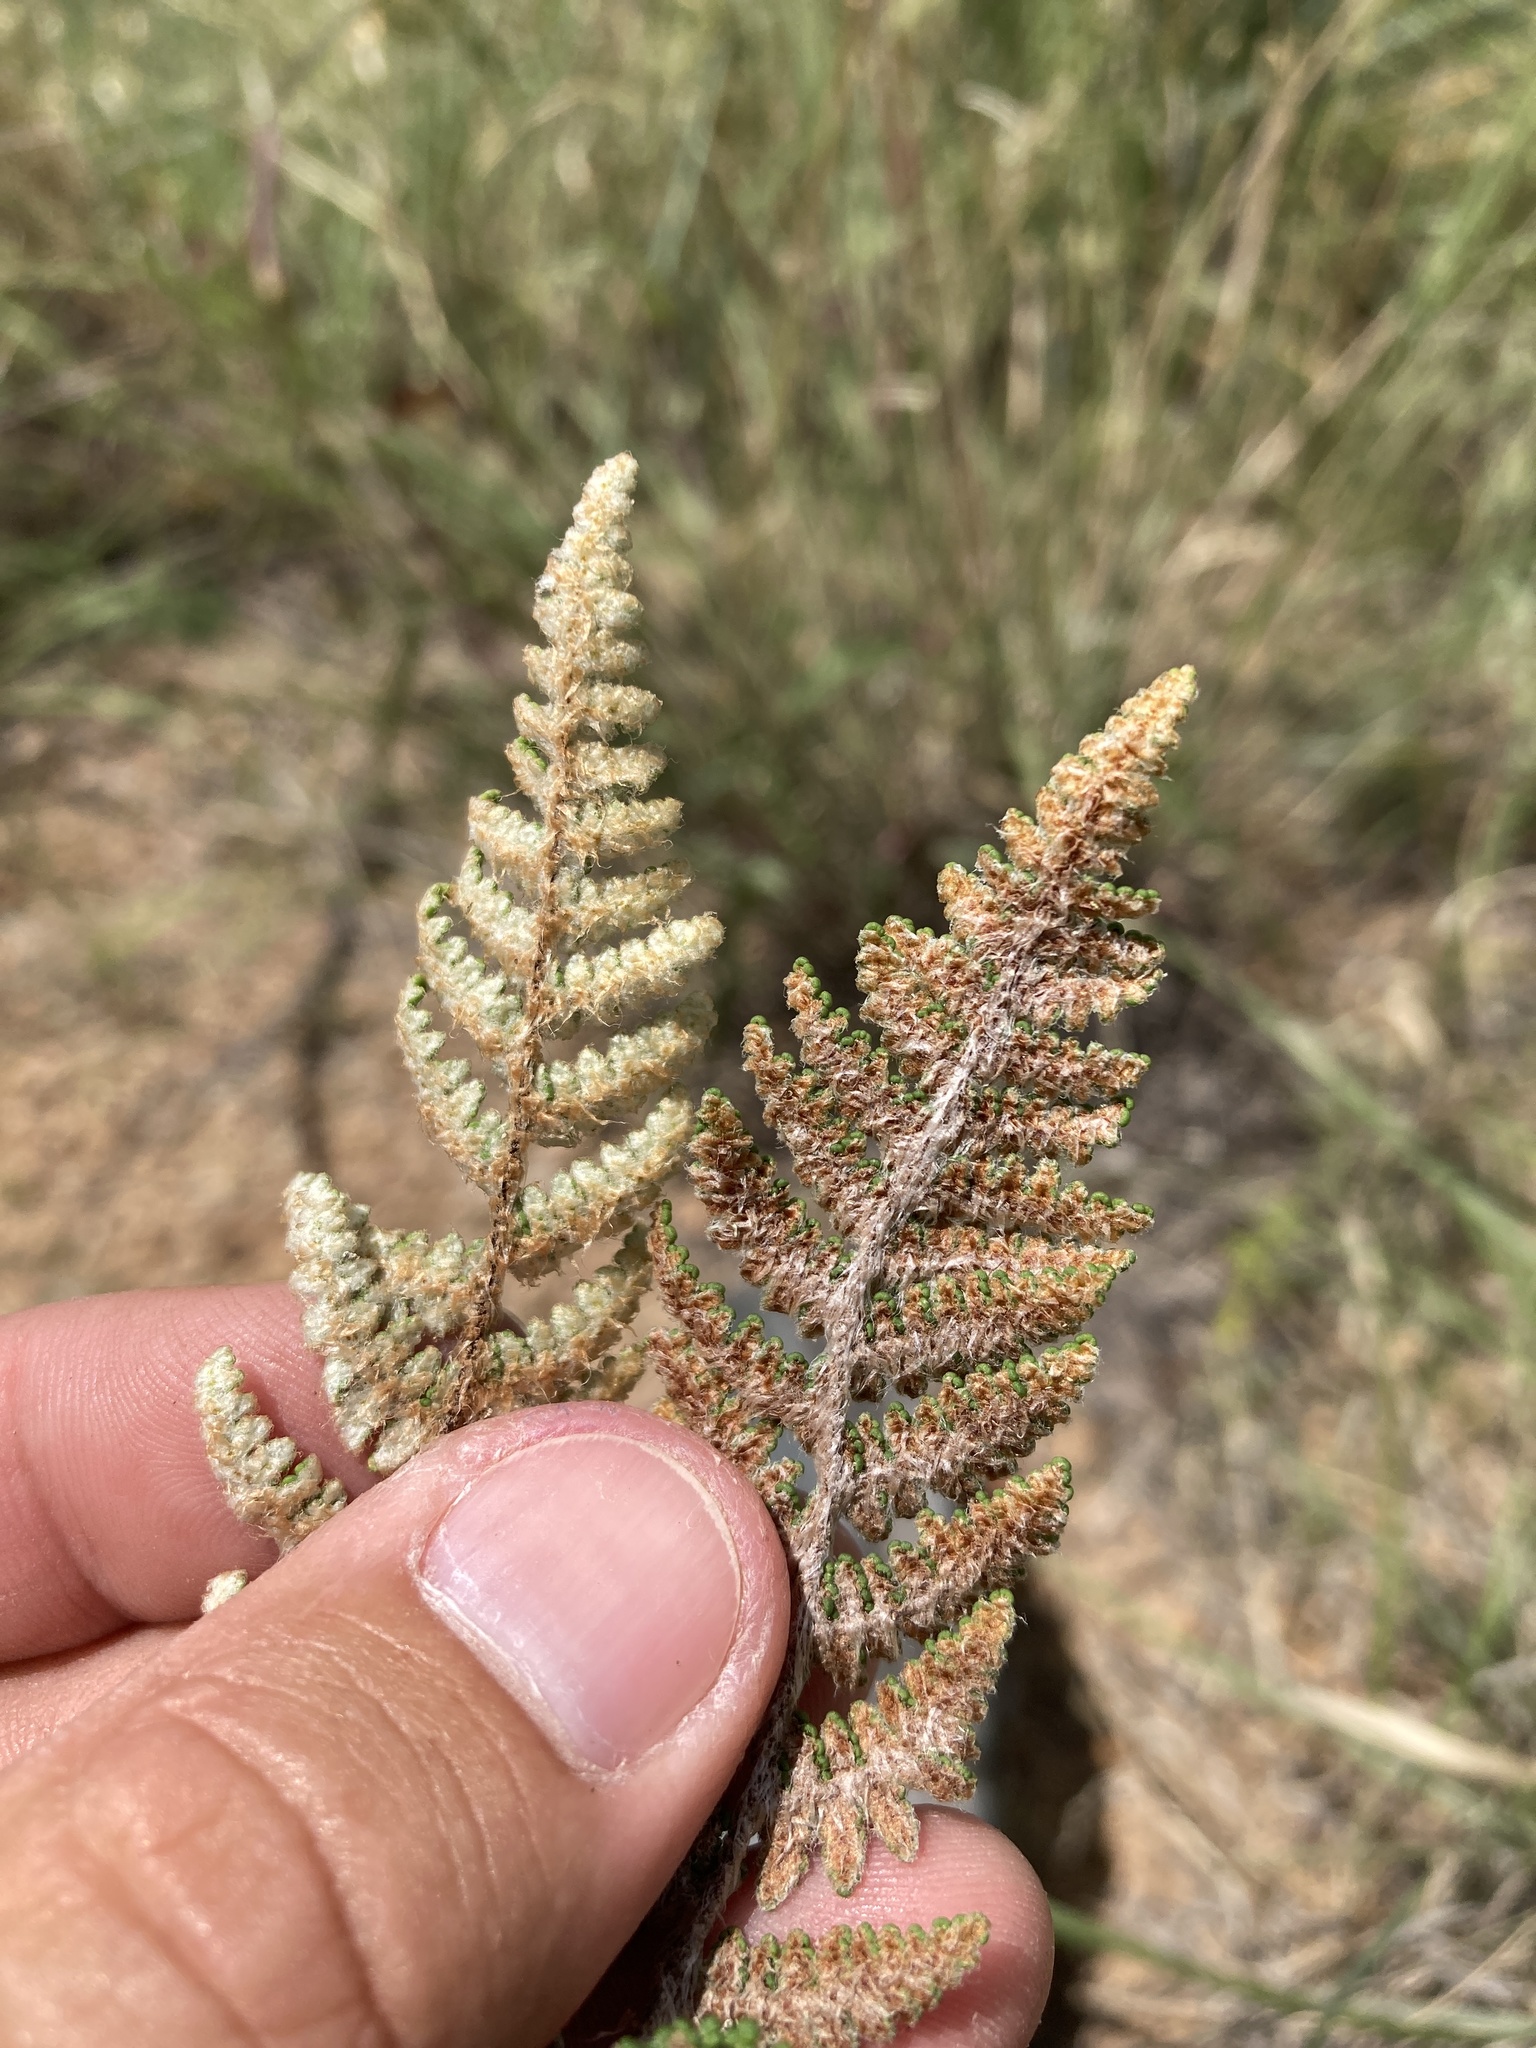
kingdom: Plantae
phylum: Tracheophyta
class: Polypodiopsida
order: Polypodiales
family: Pteridaceae
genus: Myriopteris
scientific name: Myriopteris yavapensis
